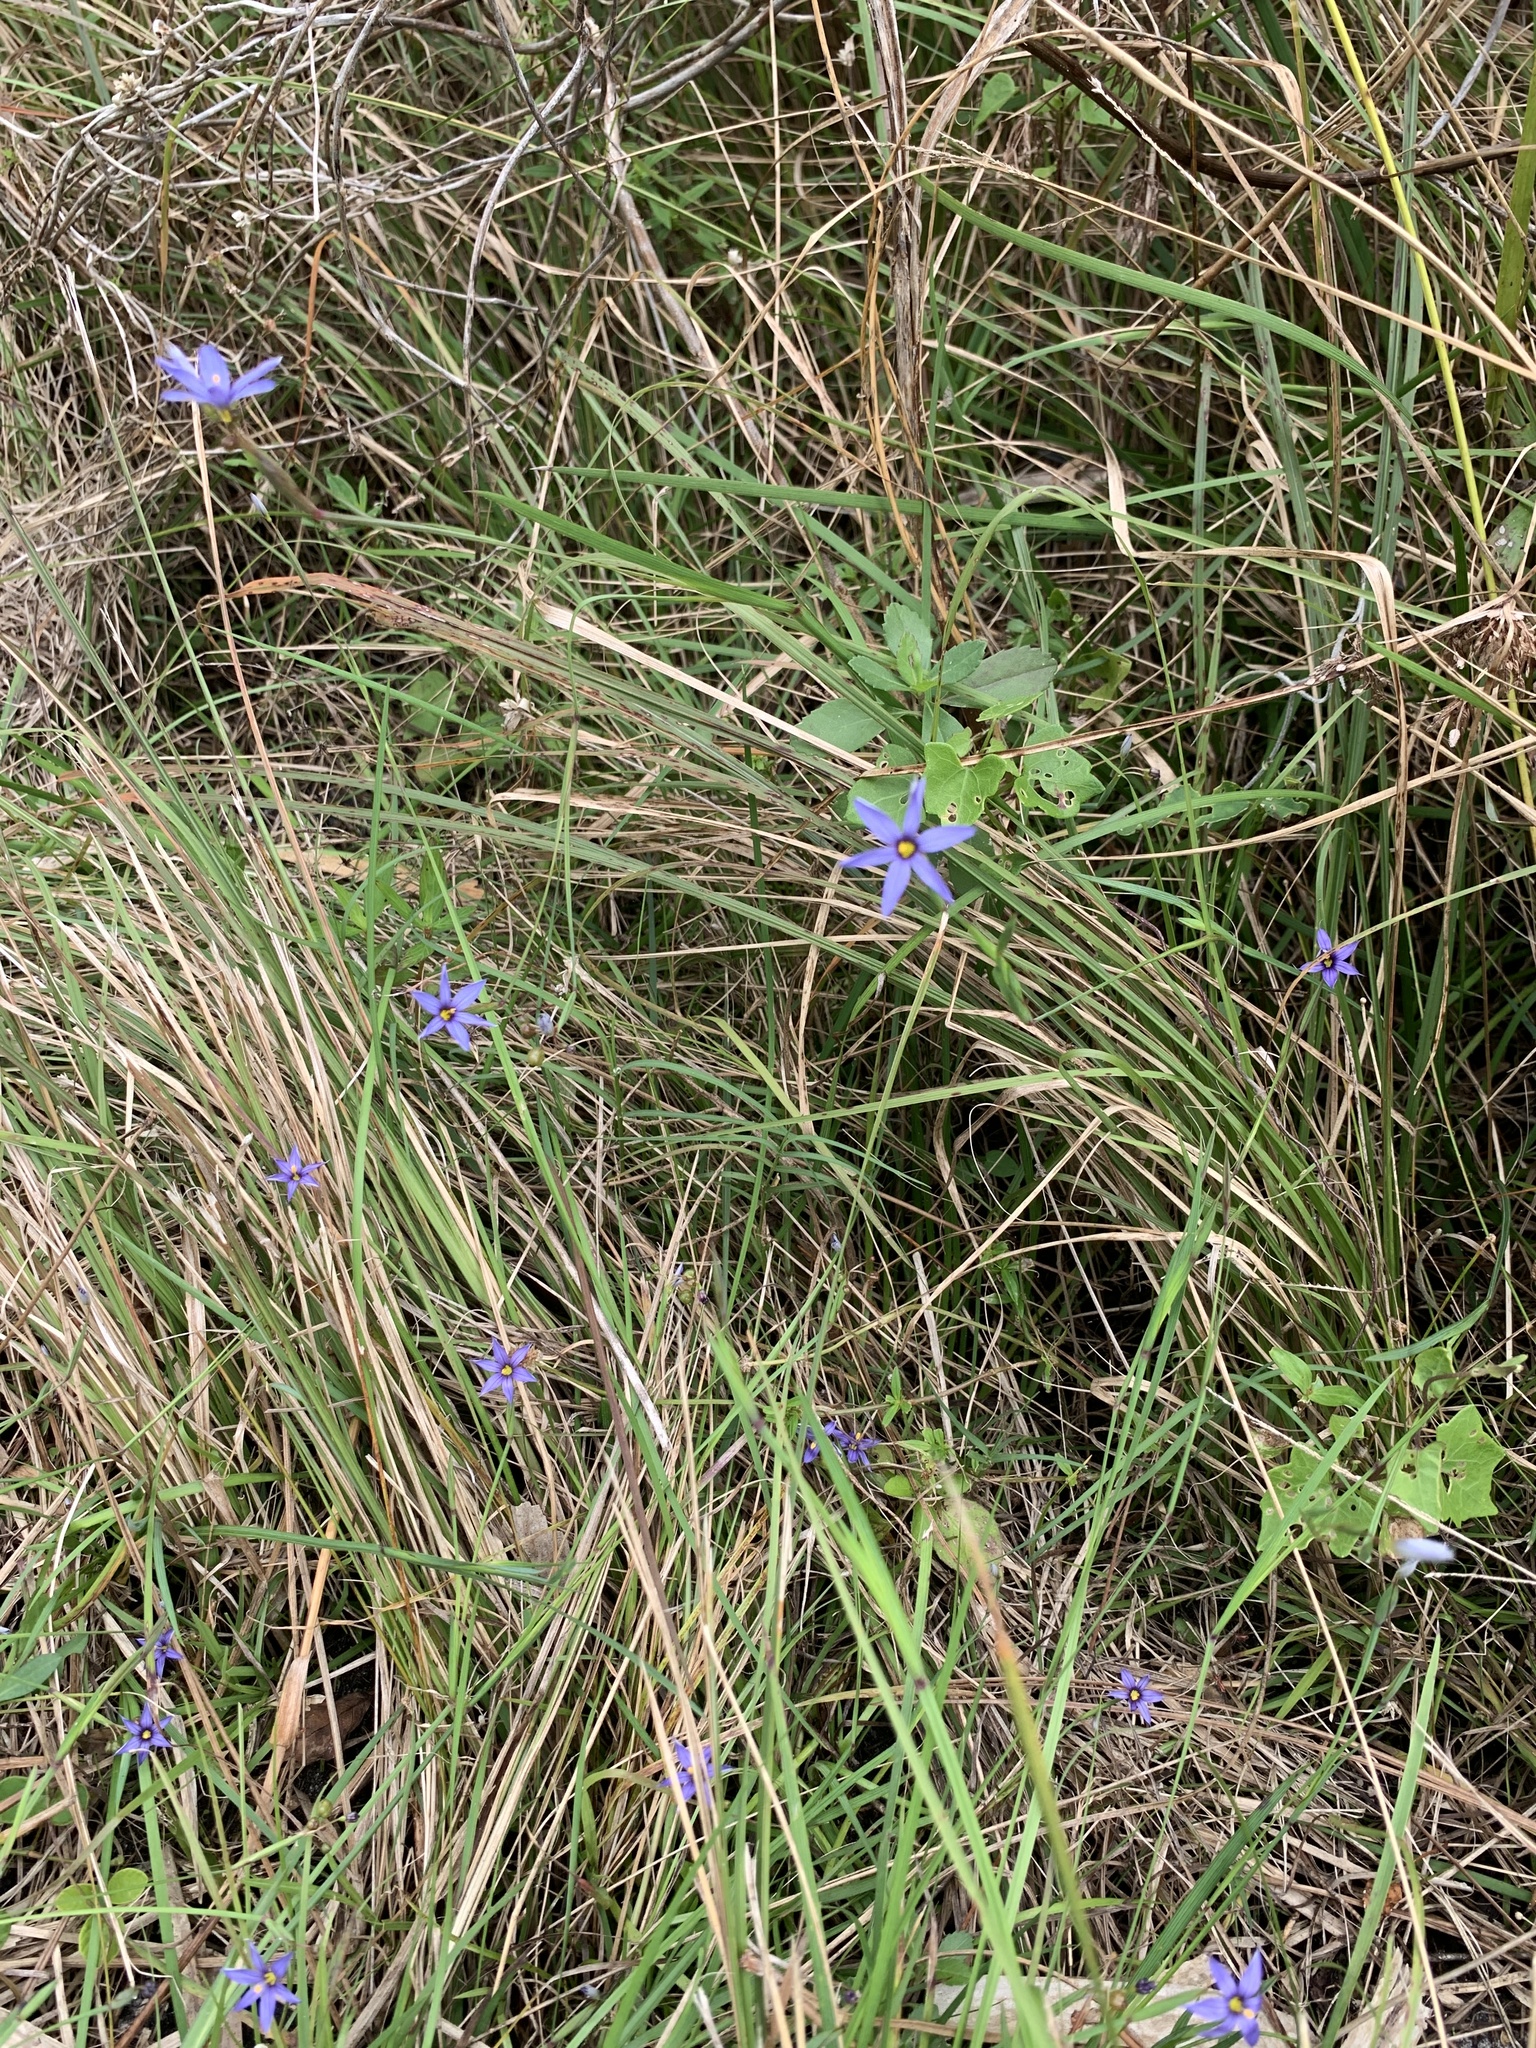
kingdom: Plantae
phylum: Tracheophyta
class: Liliopsida
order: Asparagales
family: Iridaceae
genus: Sisyrinchium
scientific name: Sisyrinchium angustifolium
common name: Narrow-leaf blue-eyed-grass
